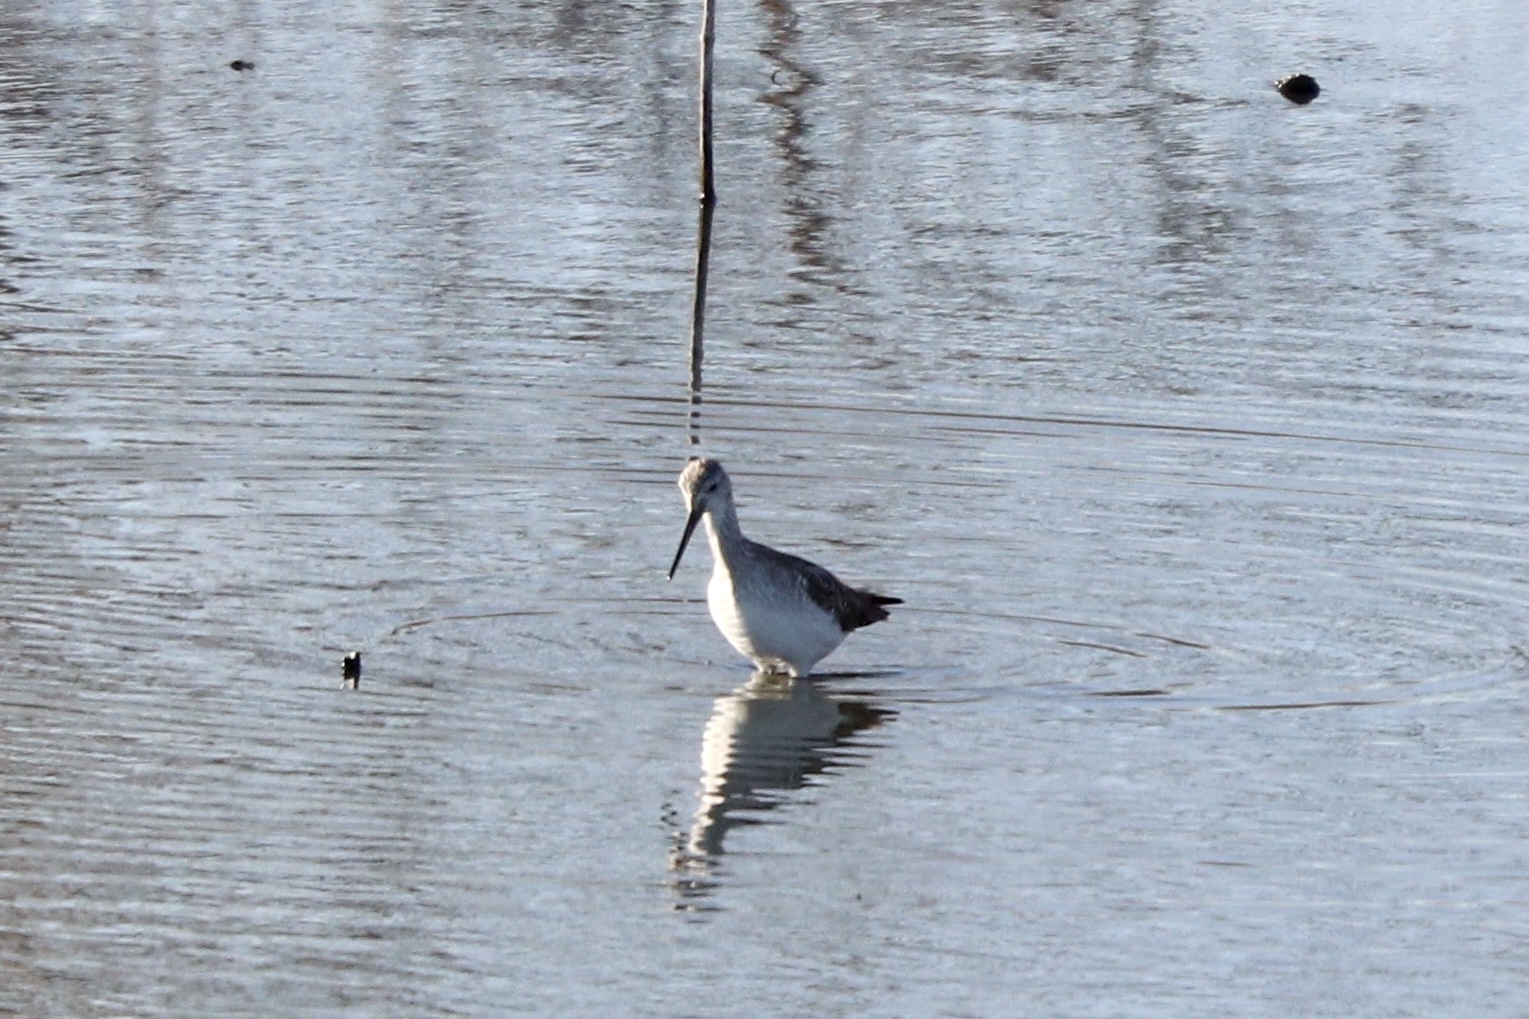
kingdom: Animalia
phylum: Chordata
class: Aves
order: Charadriiformes
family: Scolopacidae
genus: Tringa
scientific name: Tringa melanoleuca
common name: Greater yellowlegs
